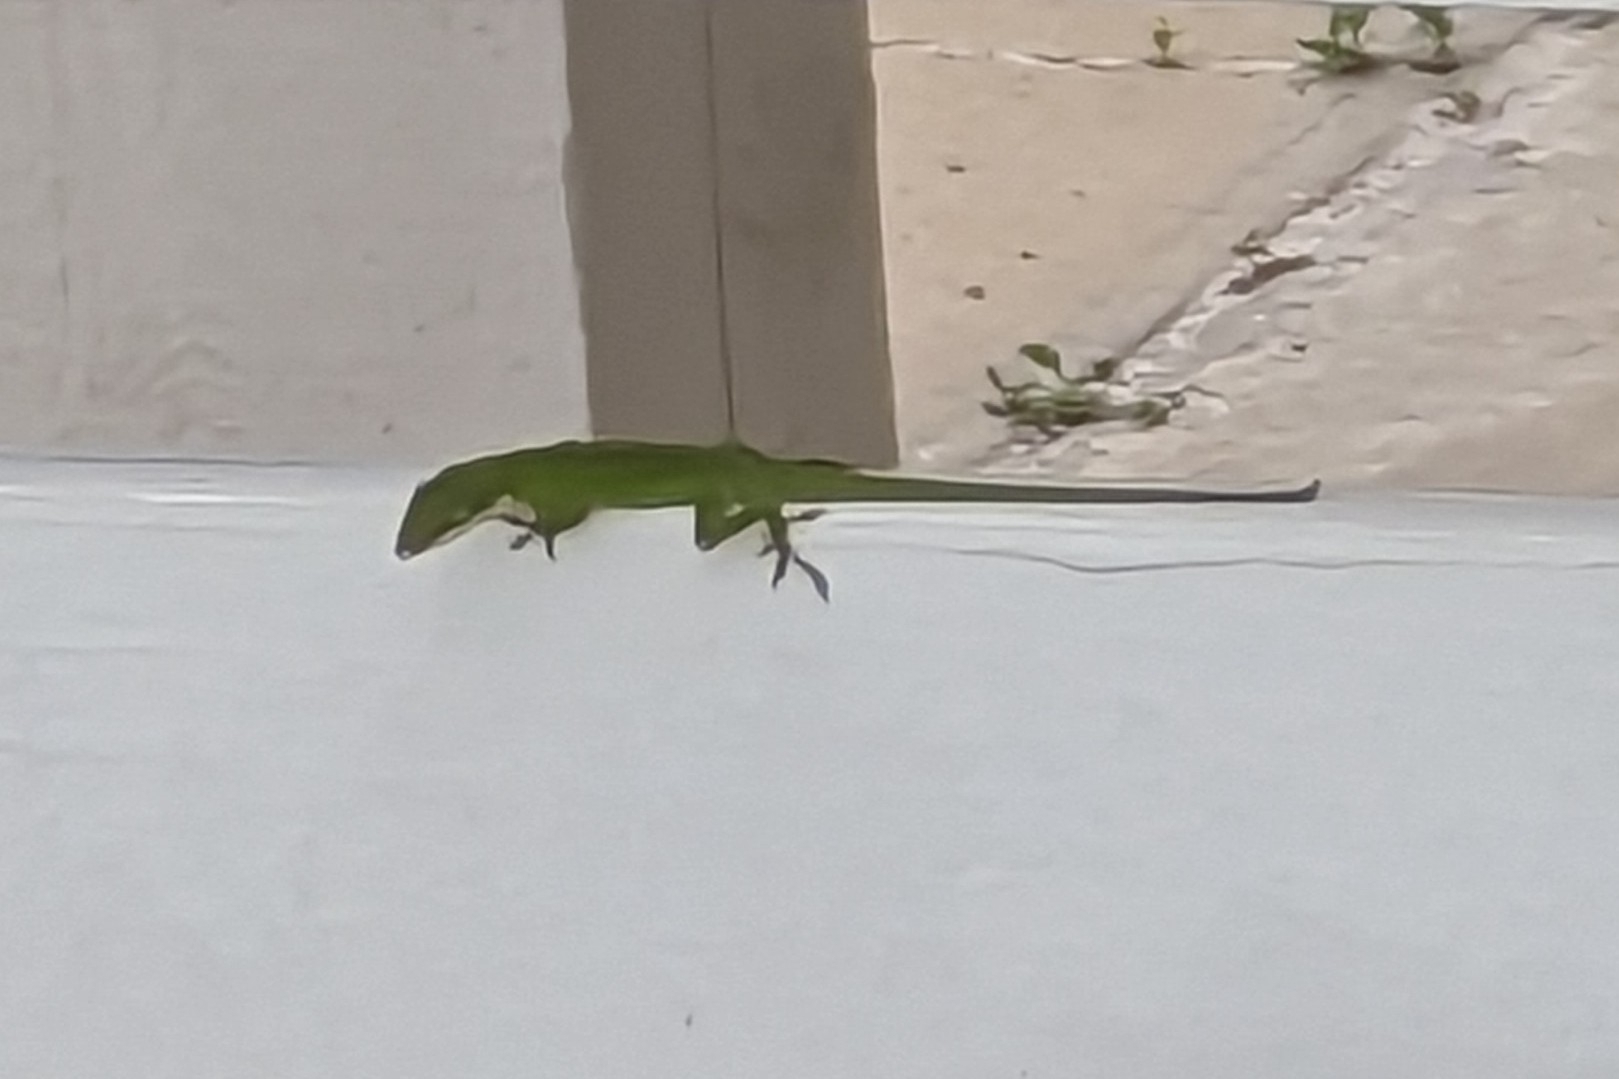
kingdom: Animalia
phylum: Chordata
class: Squamata
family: Dactyloidae
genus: Anolis
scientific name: Anolis carolinensis
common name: Green anole
